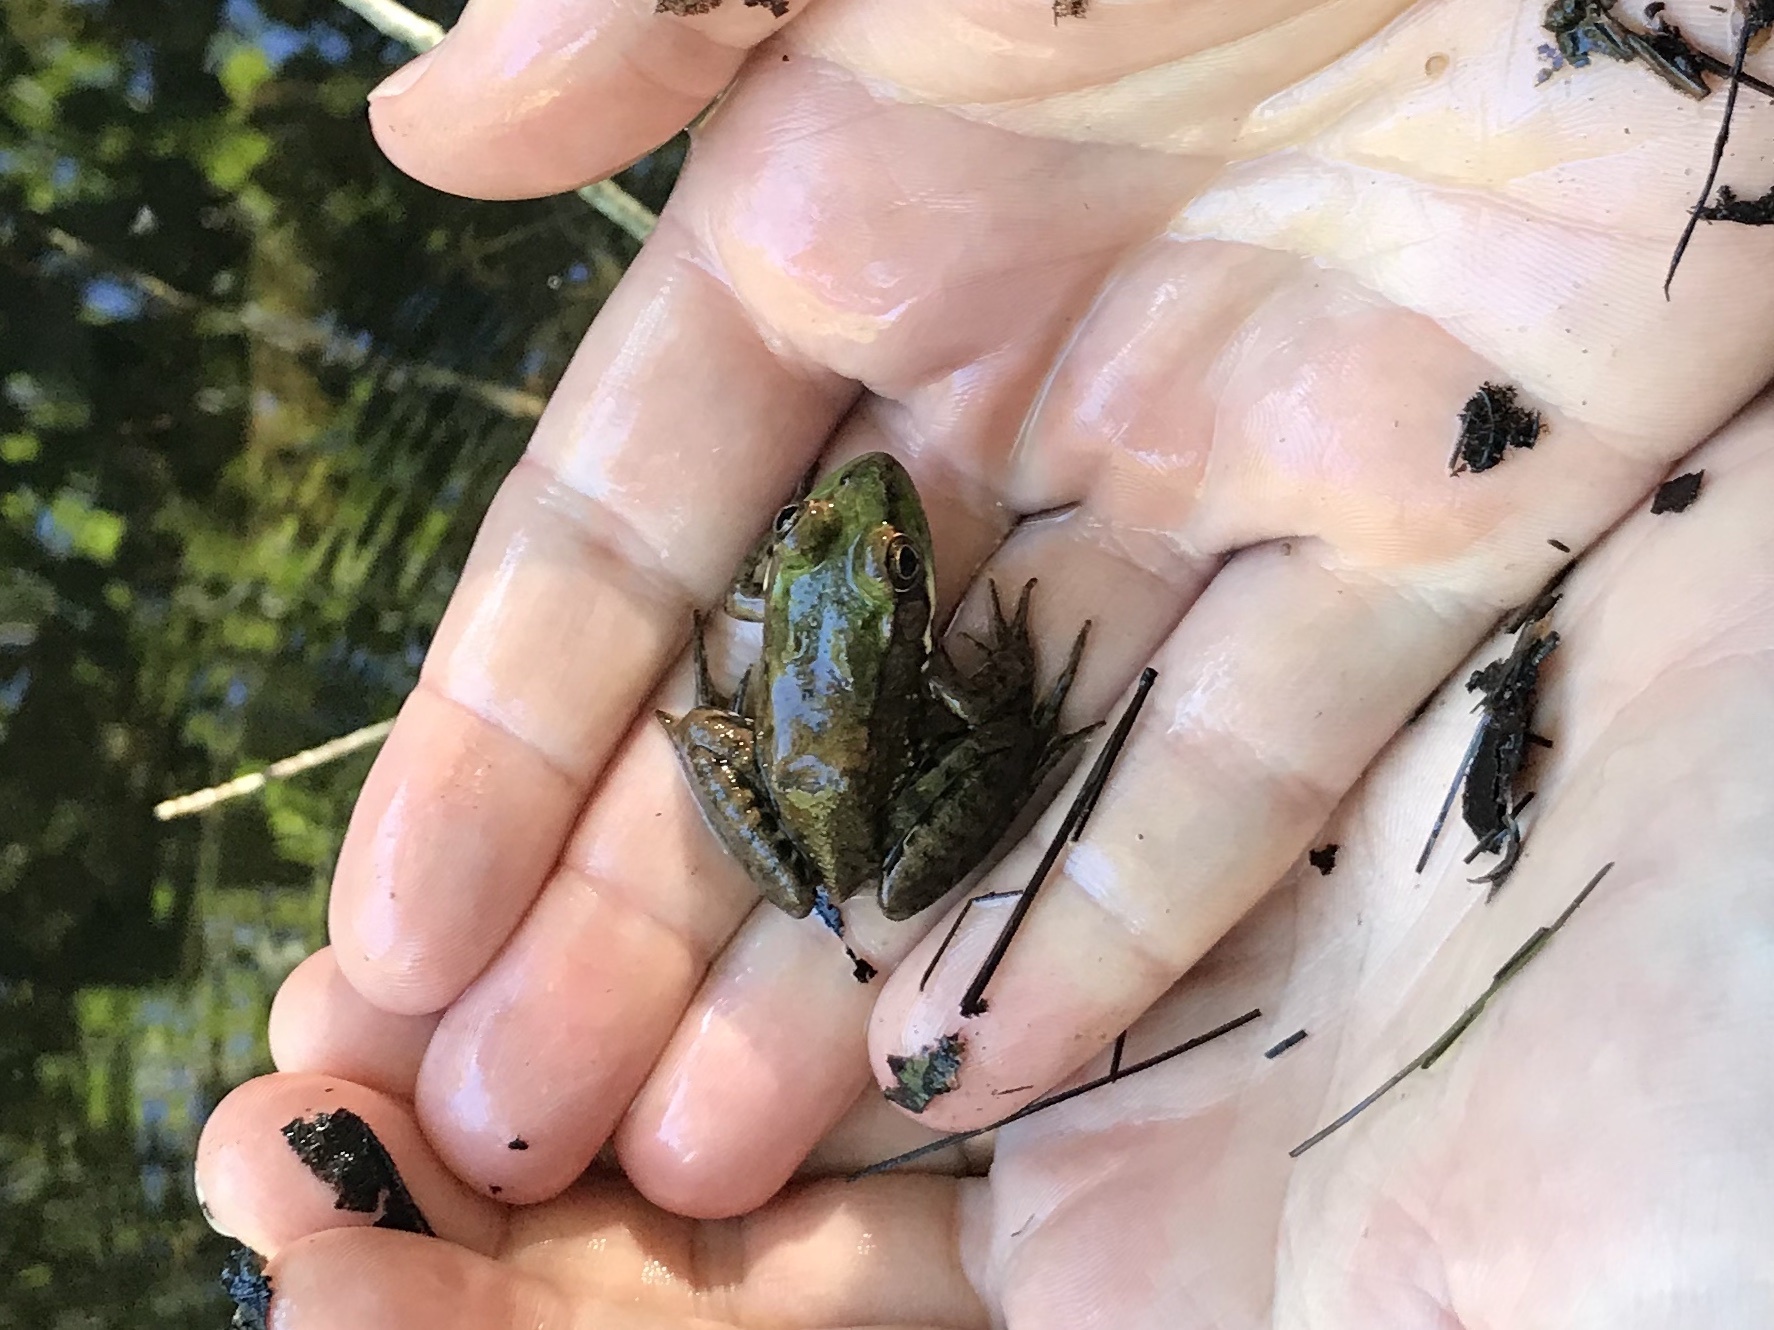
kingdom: Animalia
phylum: Chordata
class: Amphibia
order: Anura
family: Ranidae
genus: Lithobates
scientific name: Lithobates clamitans
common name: Green frog
